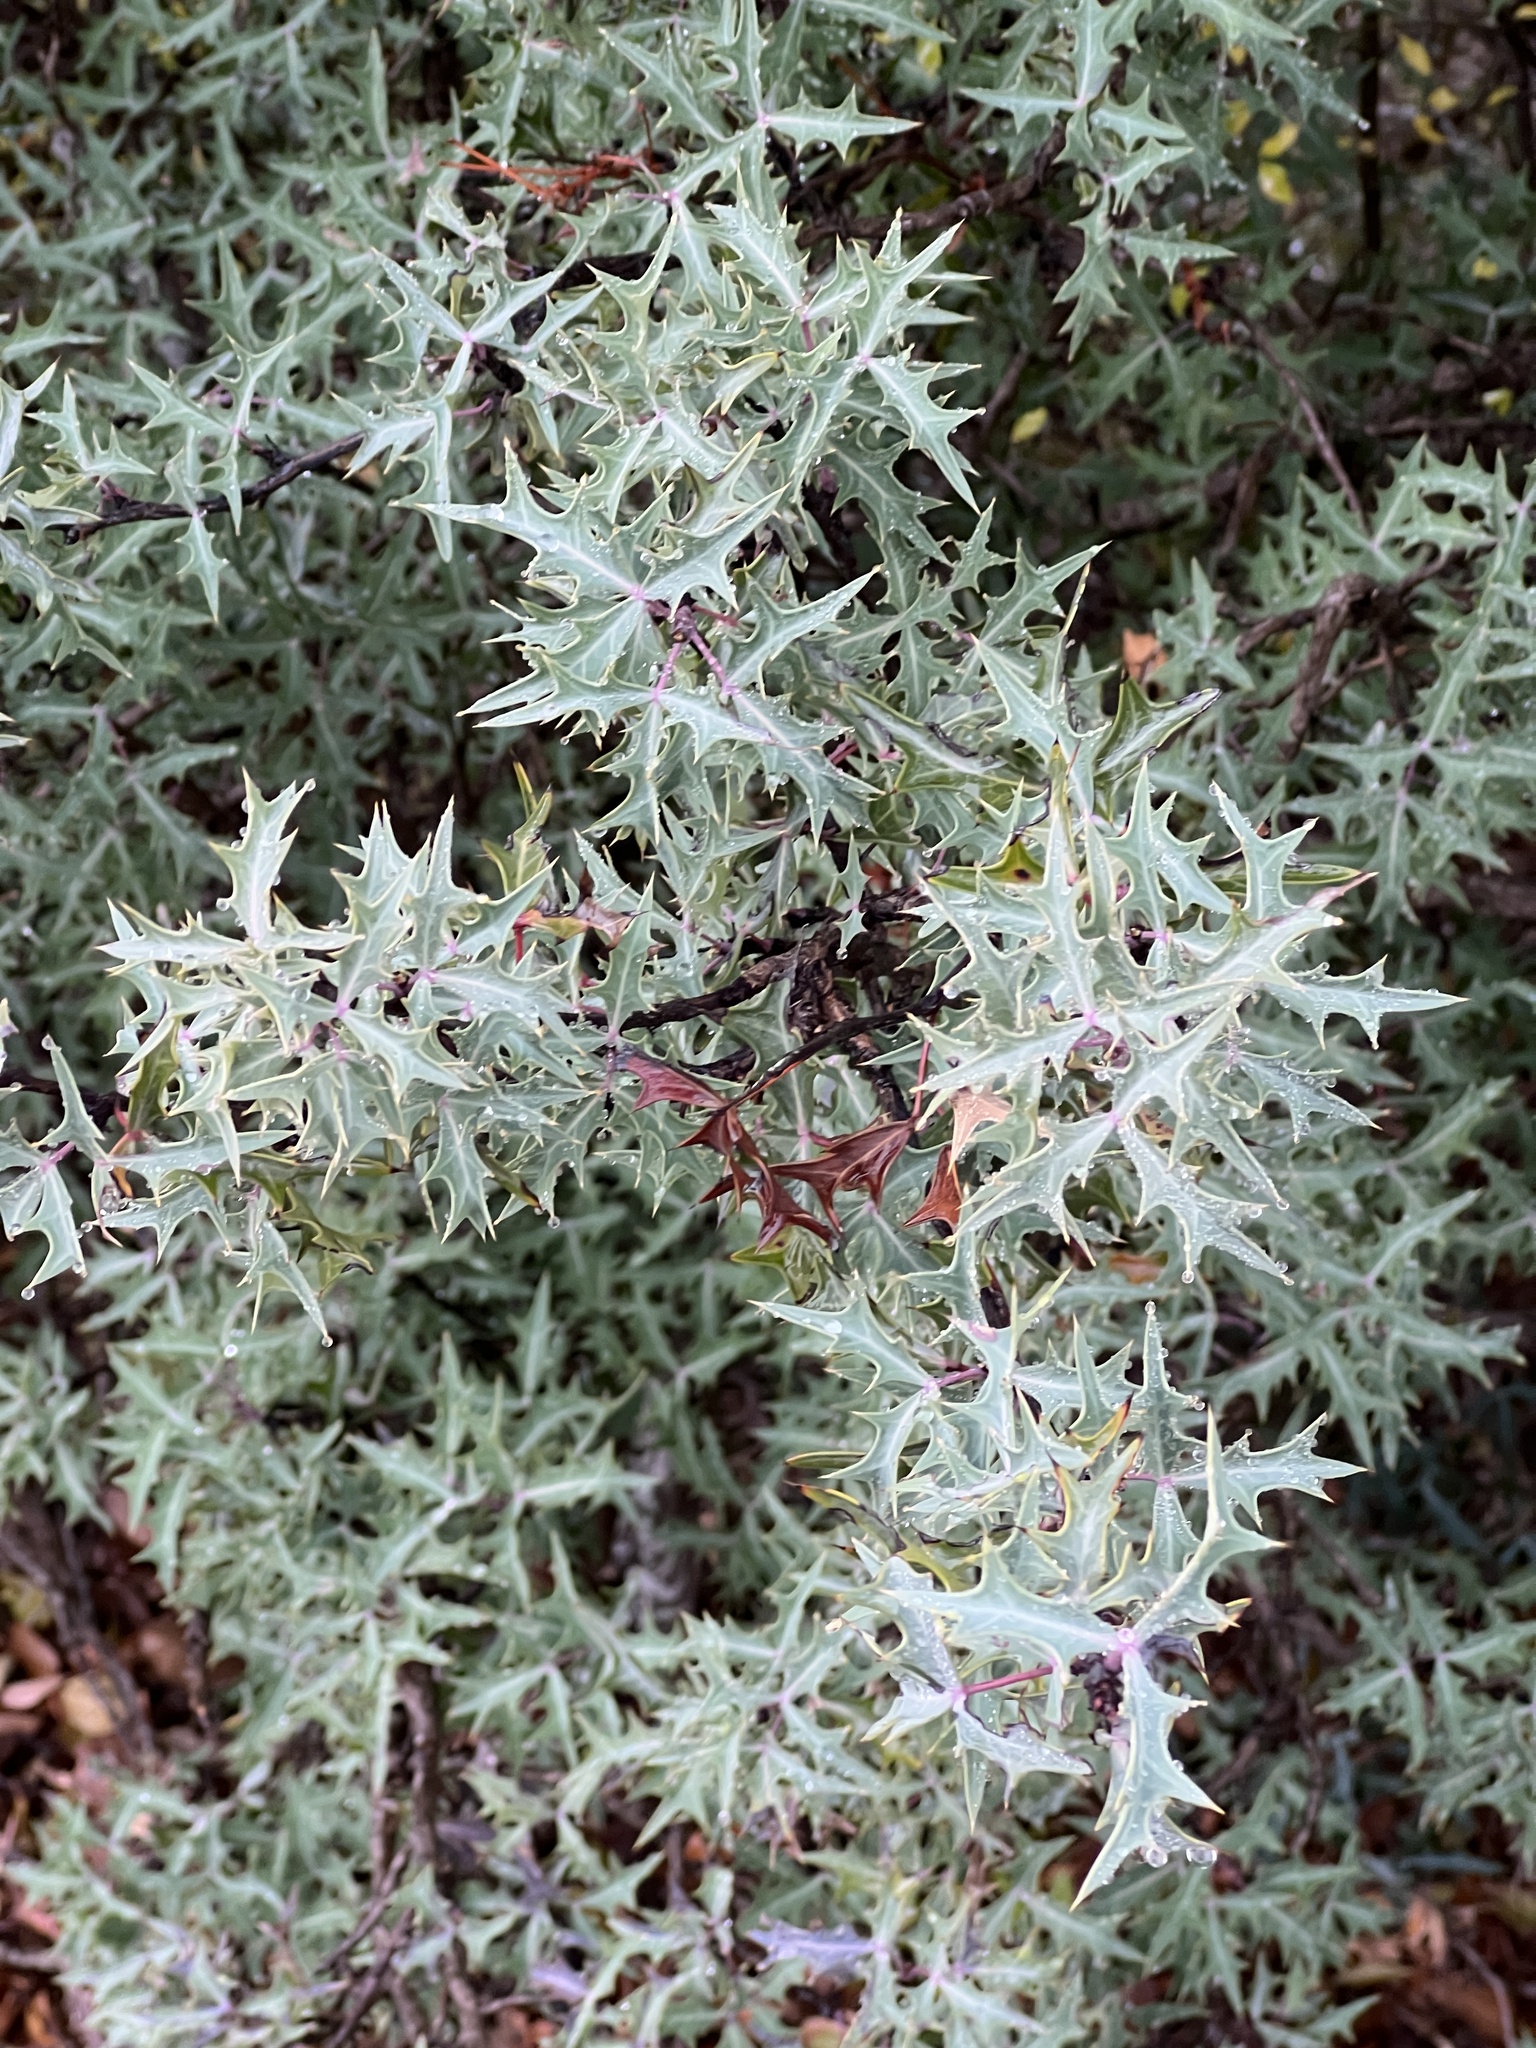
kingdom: Plantae
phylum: Tracheophyta
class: Magnoliopsida
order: Ranunculales
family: Berberidaceae
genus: Alloberberis
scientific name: Alloberberis trifoliolata
